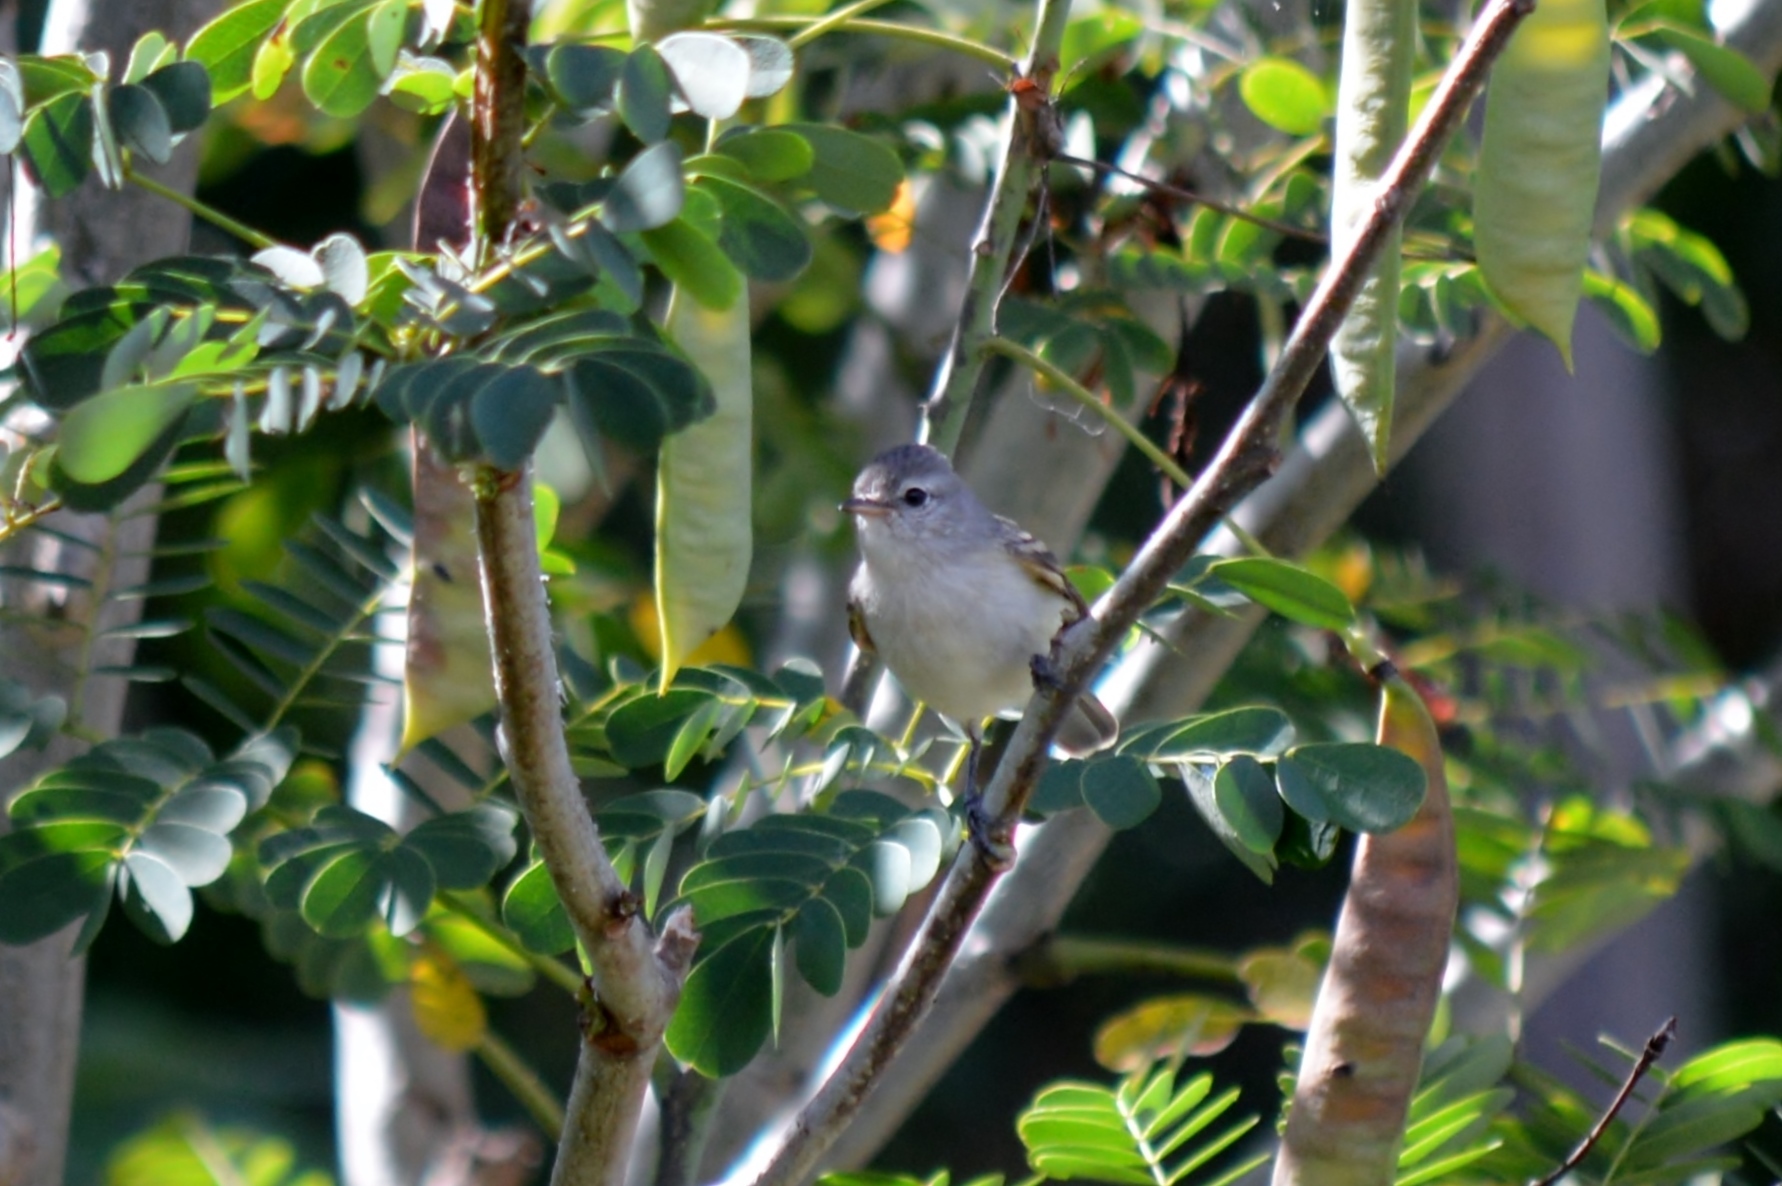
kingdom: Animalia
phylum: Chordata
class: Aves
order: Passeriformes
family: Tyrannidae
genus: Camptostoma
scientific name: Camptostoma obsoletum
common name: Southern beardless-tyrannulet
